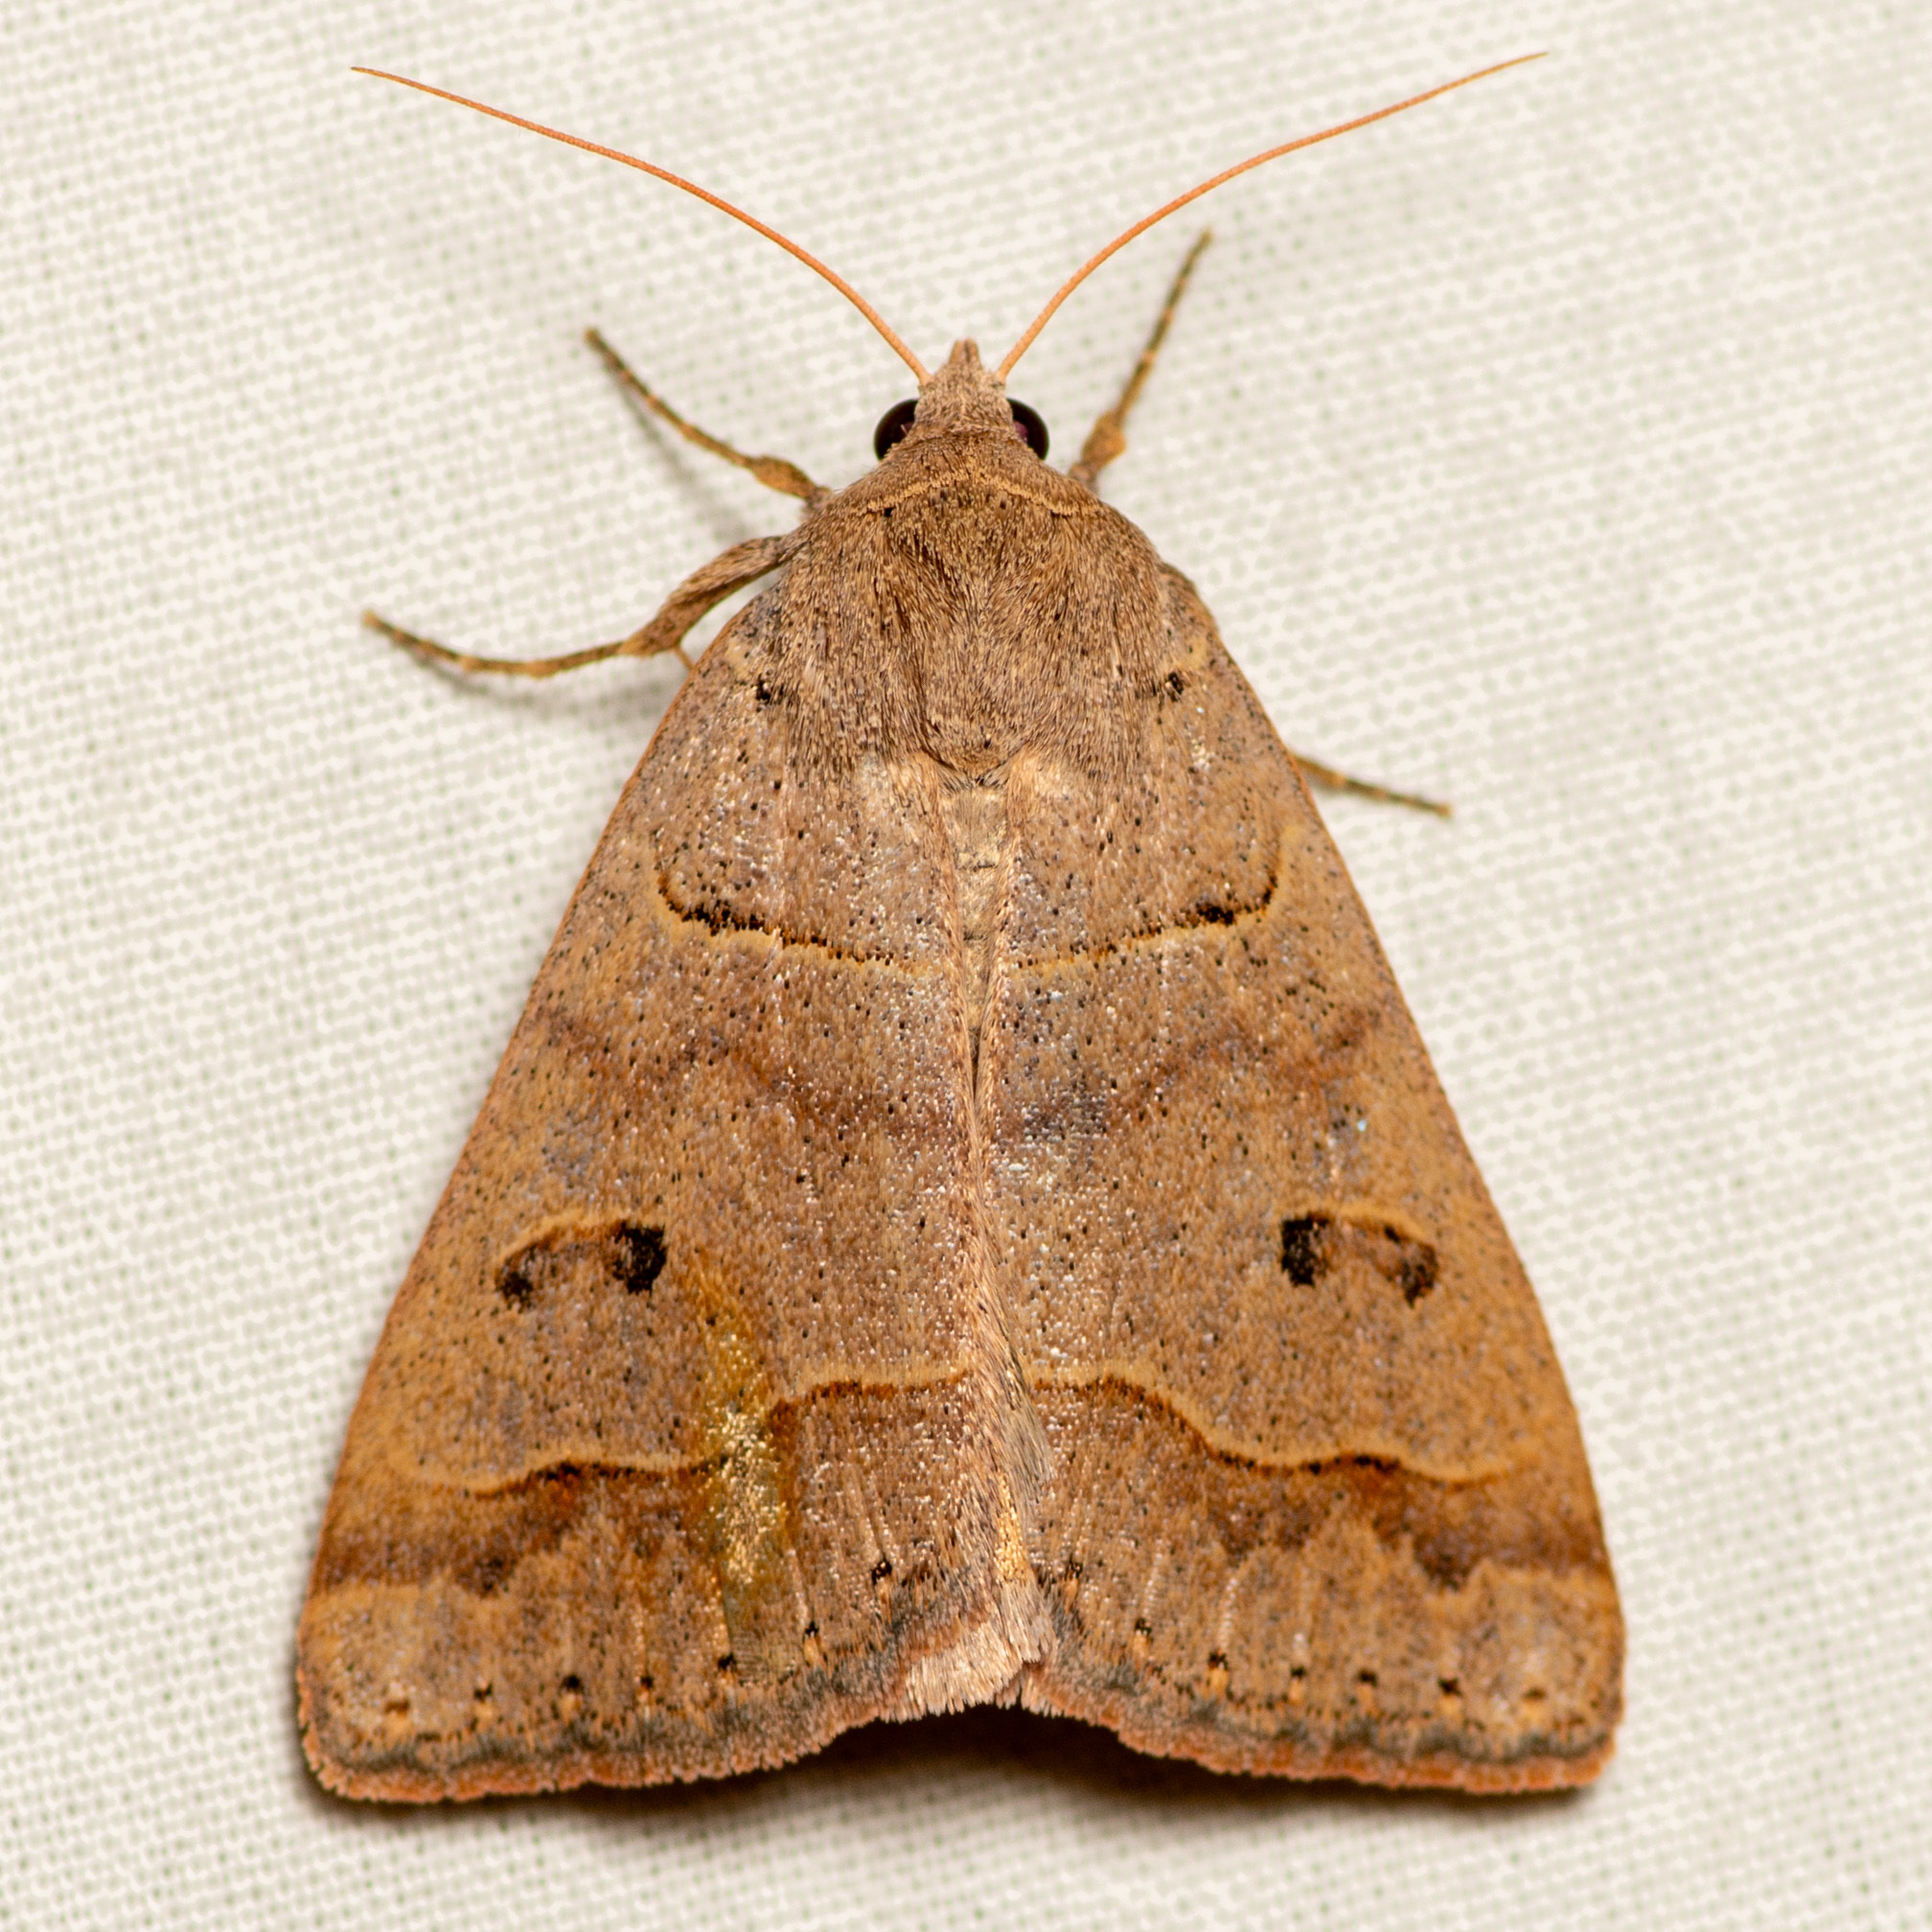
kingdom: Animalia
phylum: Arthropoda
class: Insecta
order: Lepidoptera
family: Erebidae
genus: Phoberia
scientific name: Phoberia atomaris
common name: Common oak moth
